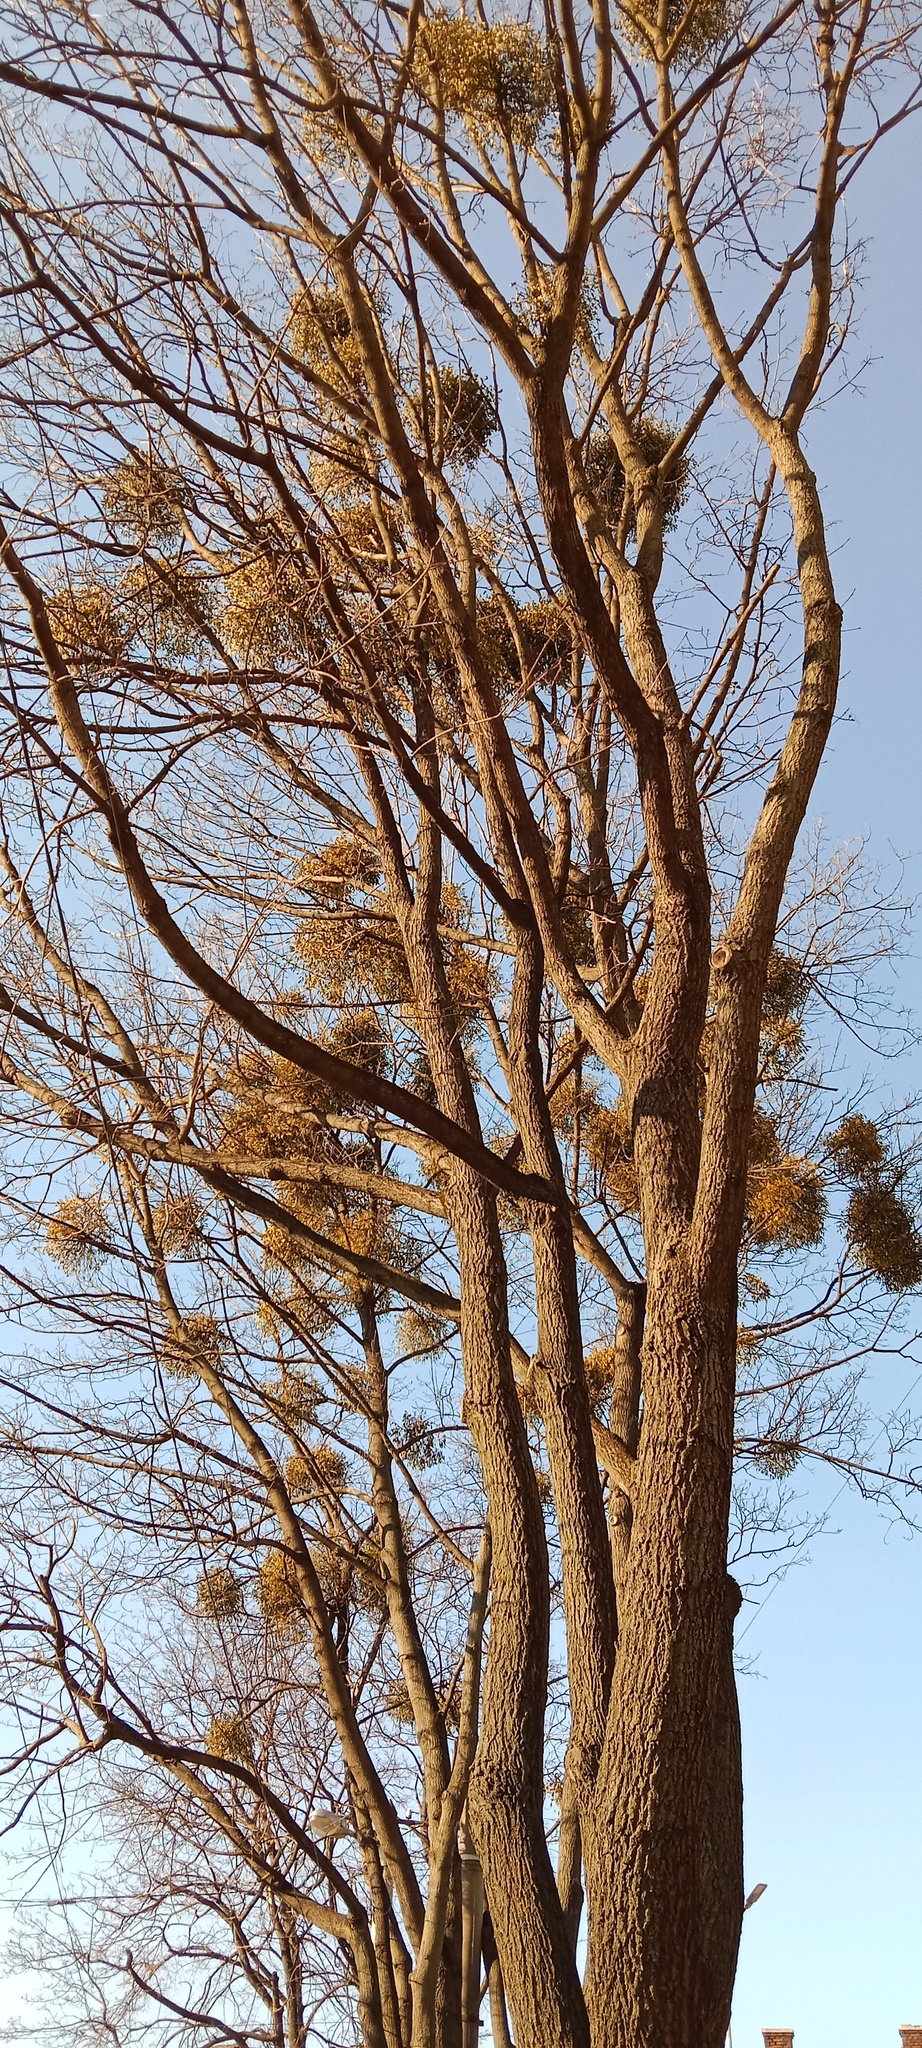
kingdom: Plantae
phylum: Tracheophyta
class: Magnoliopsida
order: Santalales
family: Viscaceae
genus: Viscum
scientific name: Viscum album
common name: Mistletoe
